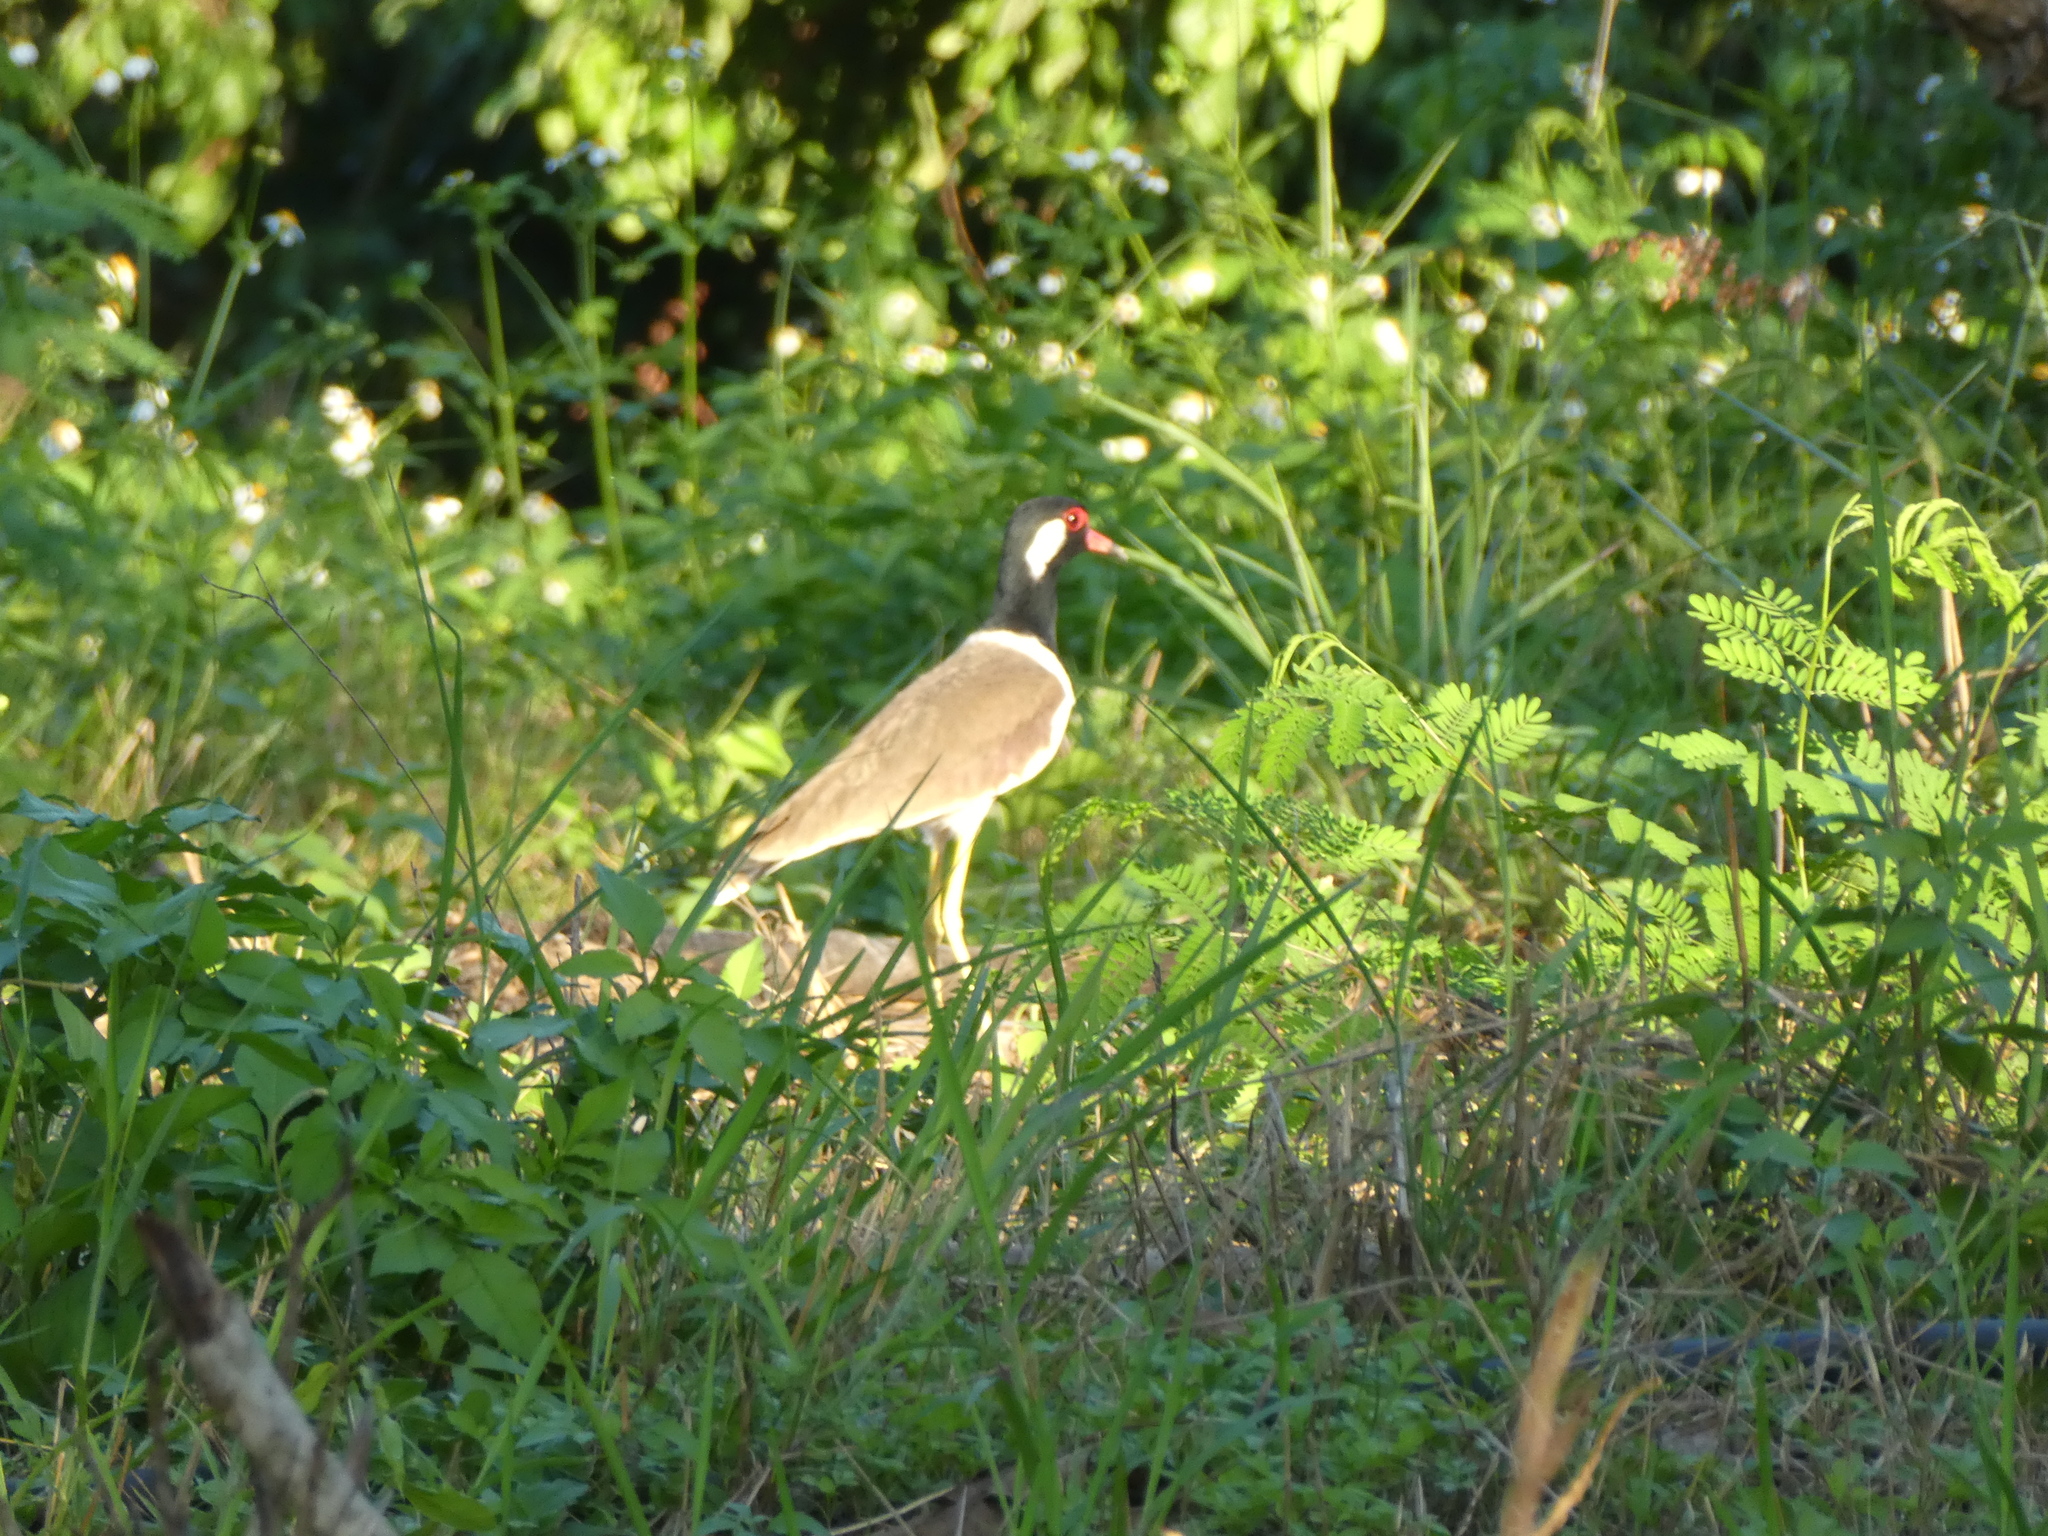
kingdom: Animalia
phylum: Chordata
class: Aves
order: Charadriiformes
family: Charadriidae
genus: Vanellus
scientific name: Vanellus indicus
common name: Red-wattled lapwing
